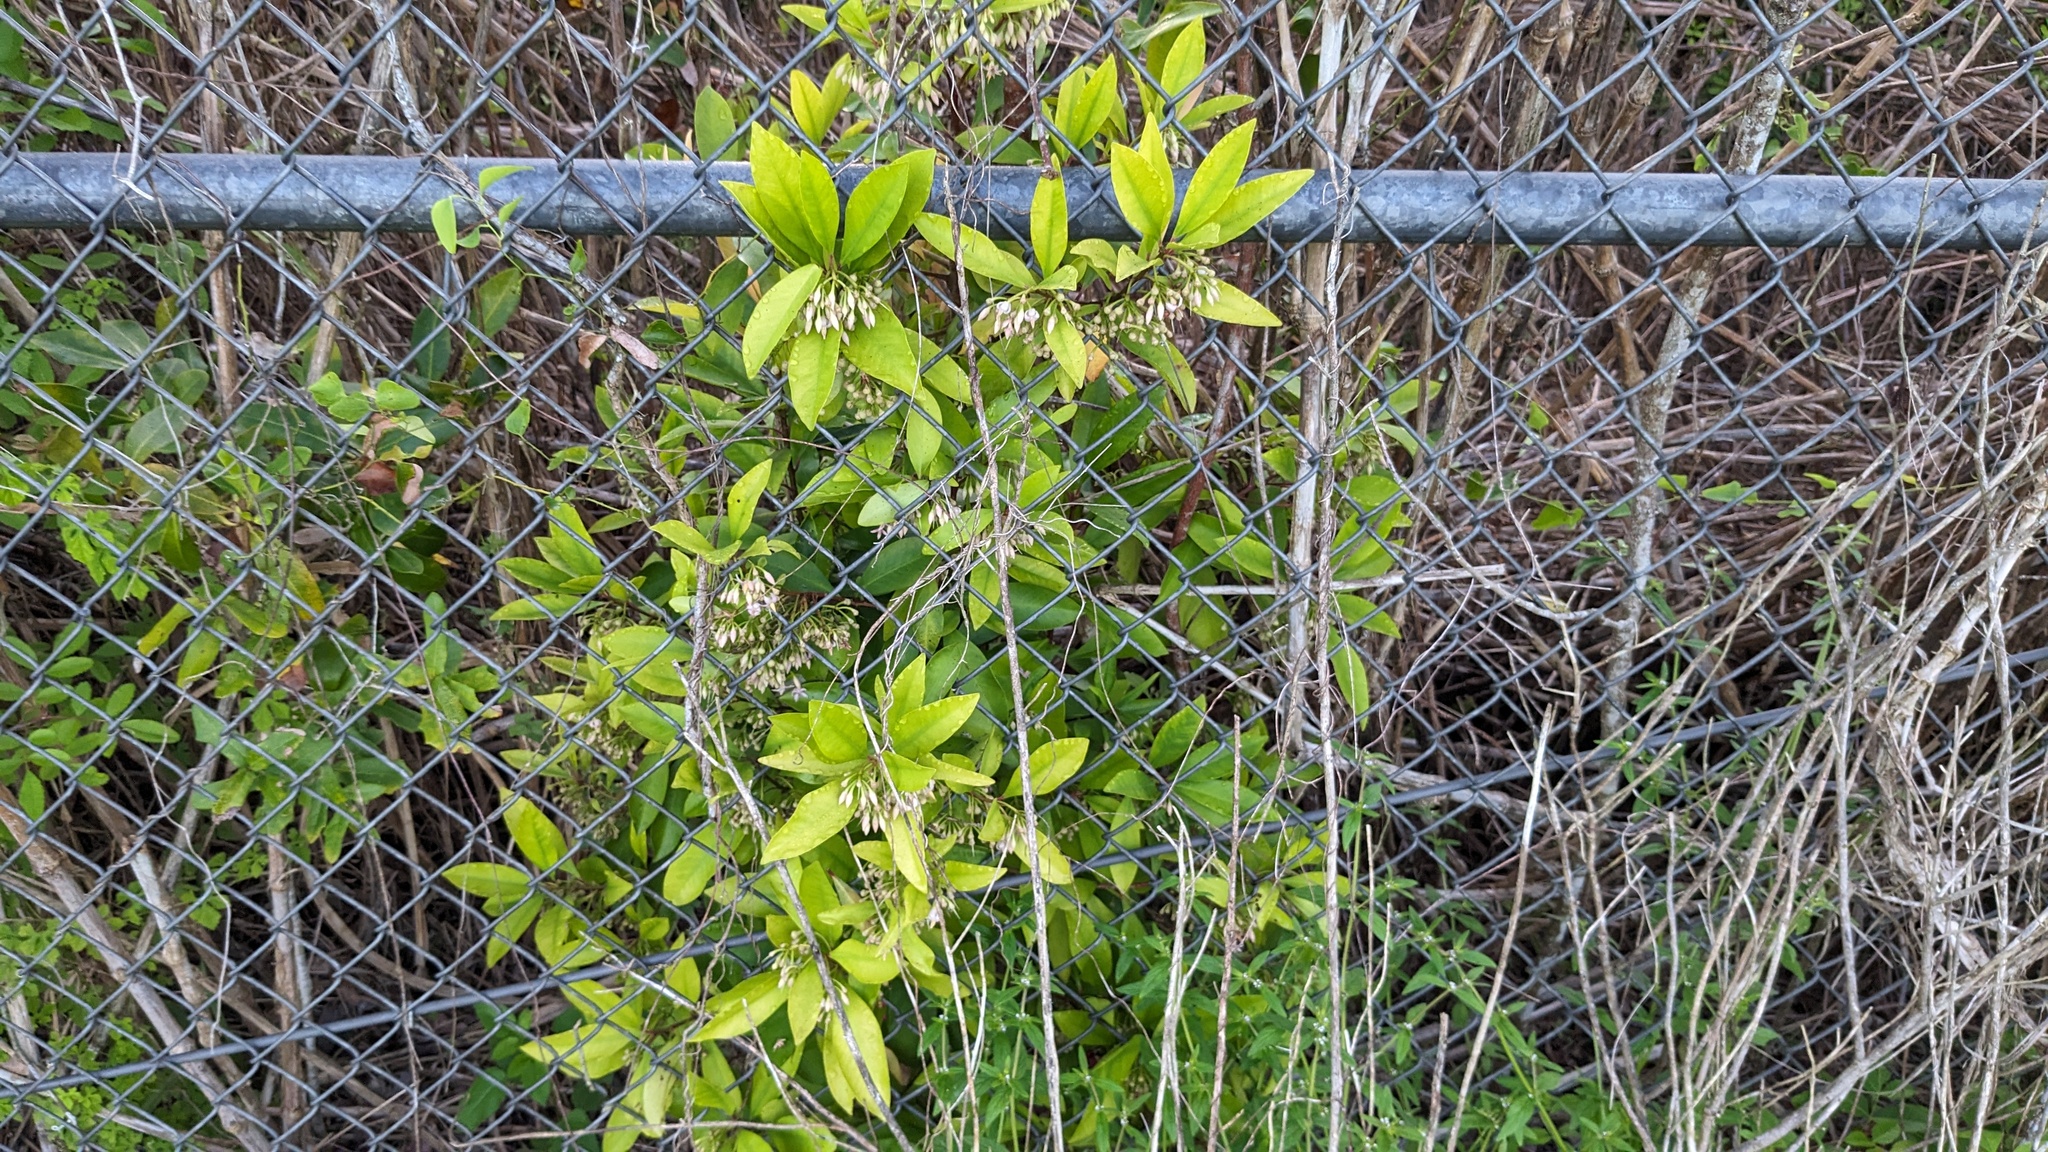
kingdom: Plantae
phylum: Tracheophyta
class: Magnoliopsida
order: Ericales
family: Primulaceae
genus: Ardisia
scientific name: Ardisia elliptica
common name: Shoebutton
